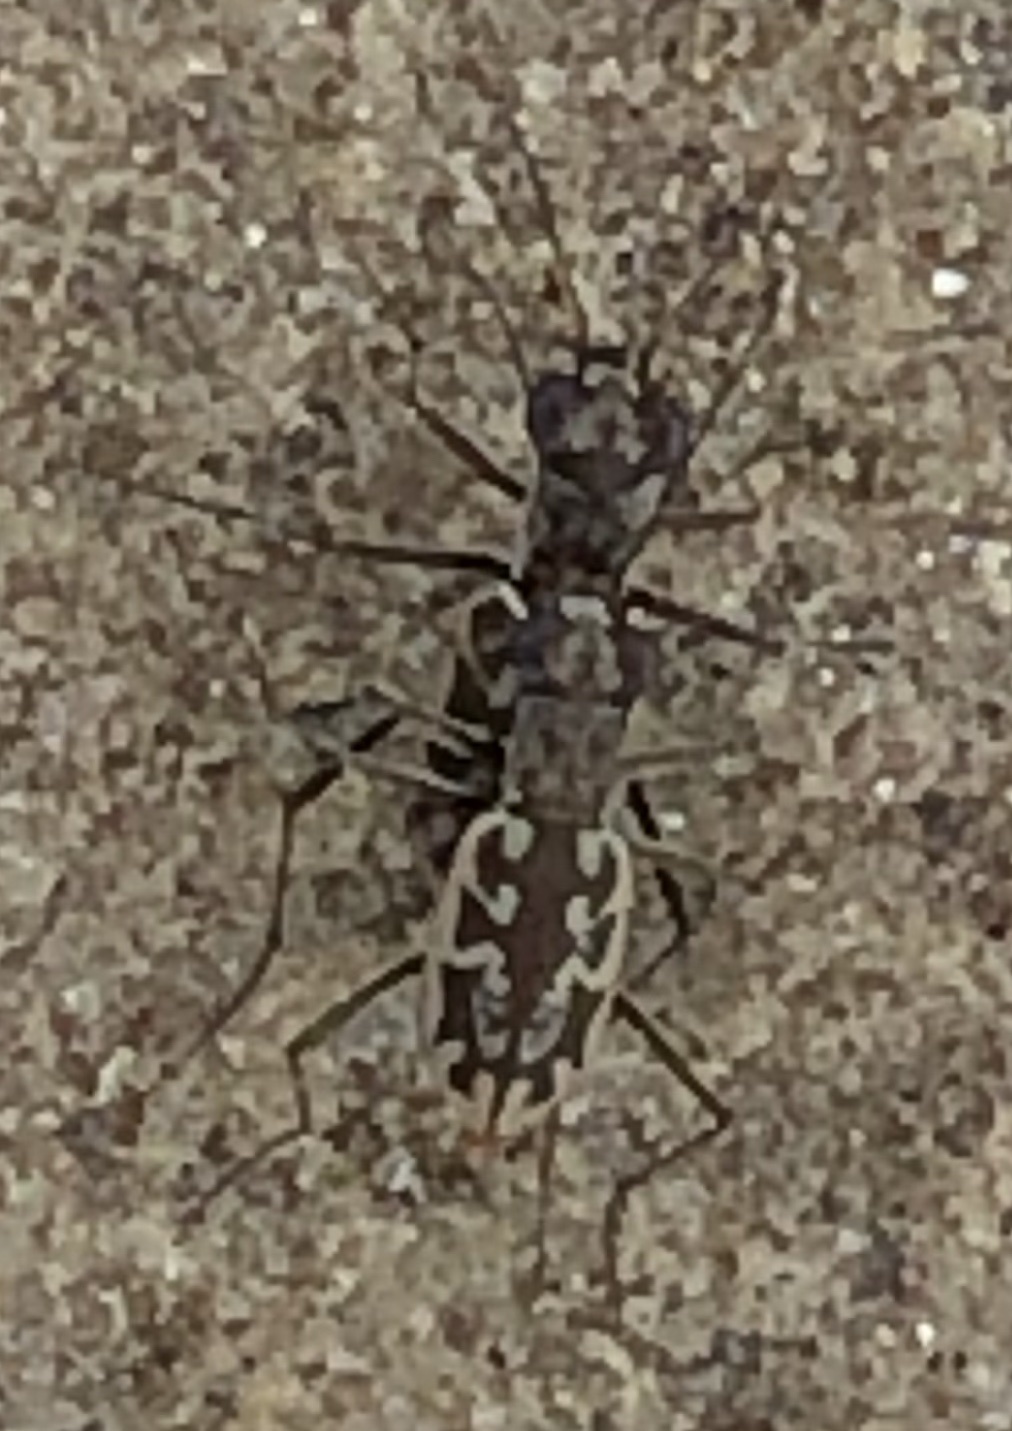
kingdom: Animalia
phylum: Arthropoda
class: Insecta
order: Coleoptera
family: Carabidae
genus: Ellipsoptera
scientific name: Ellipsoptera hamata
